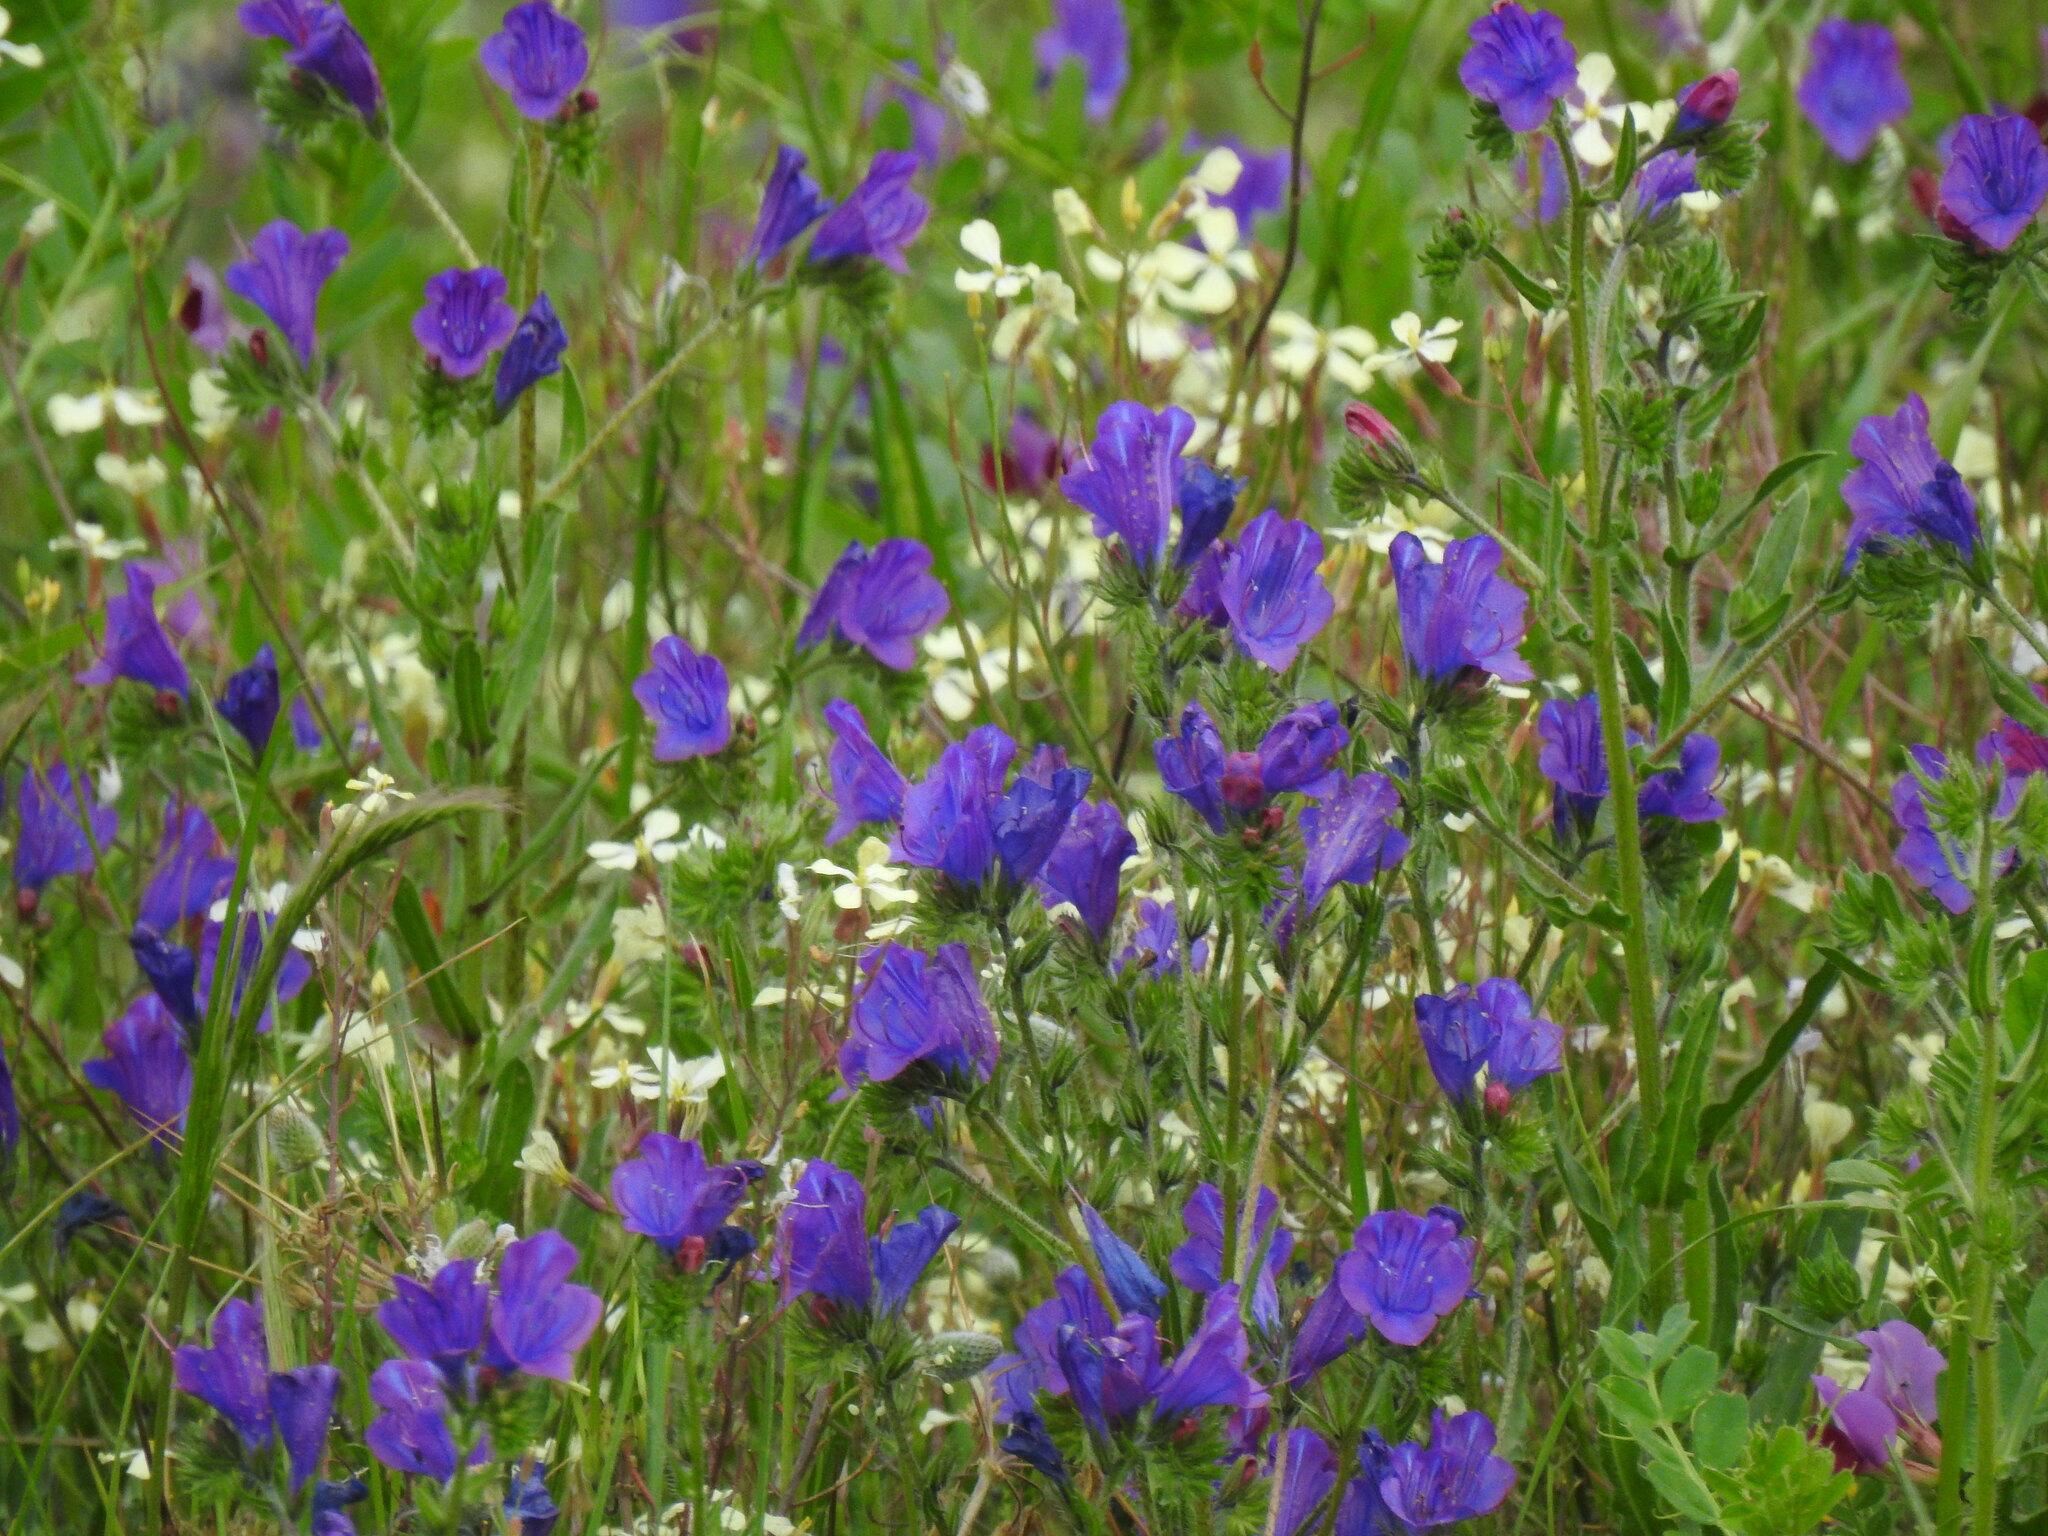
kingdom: Plantae
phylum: Tracheophyta
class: Magnoliopsida
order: Boraginales
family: Boraginaceae
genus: Echium
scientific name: Echium plantagineum
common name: Purple viper's-bugloss
